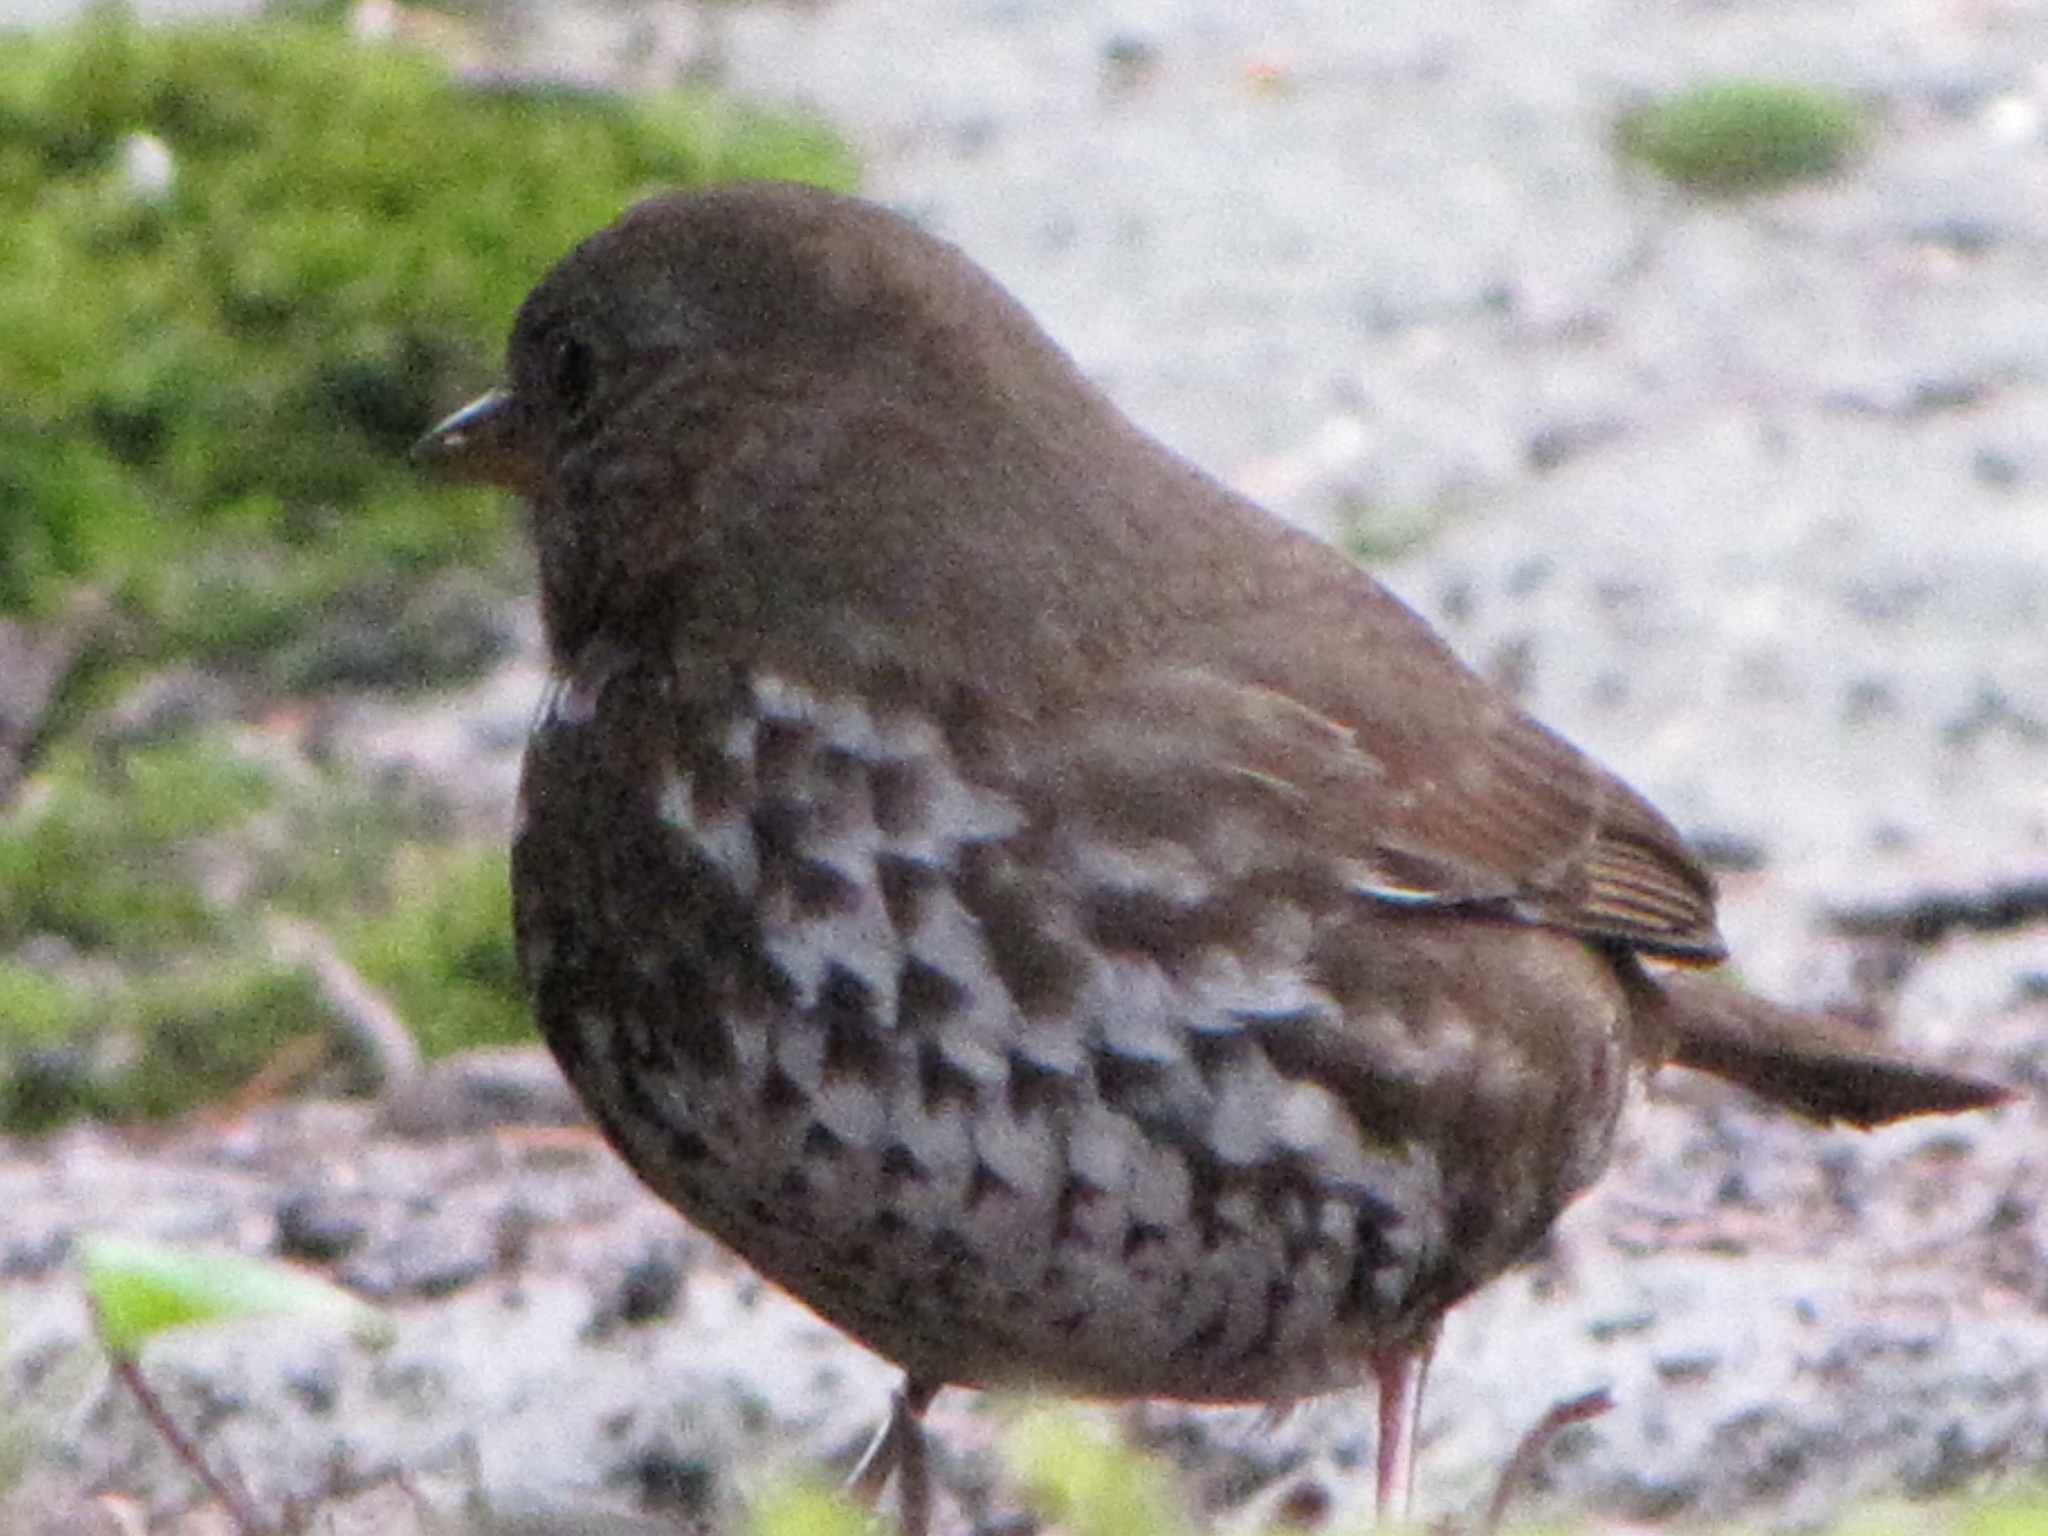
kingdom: Animalia
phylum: Chordata
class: Aves
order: Passeriformes
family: Passerellidae
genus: Passerella
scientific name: Passerella iliaca
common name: Fox sparrow
